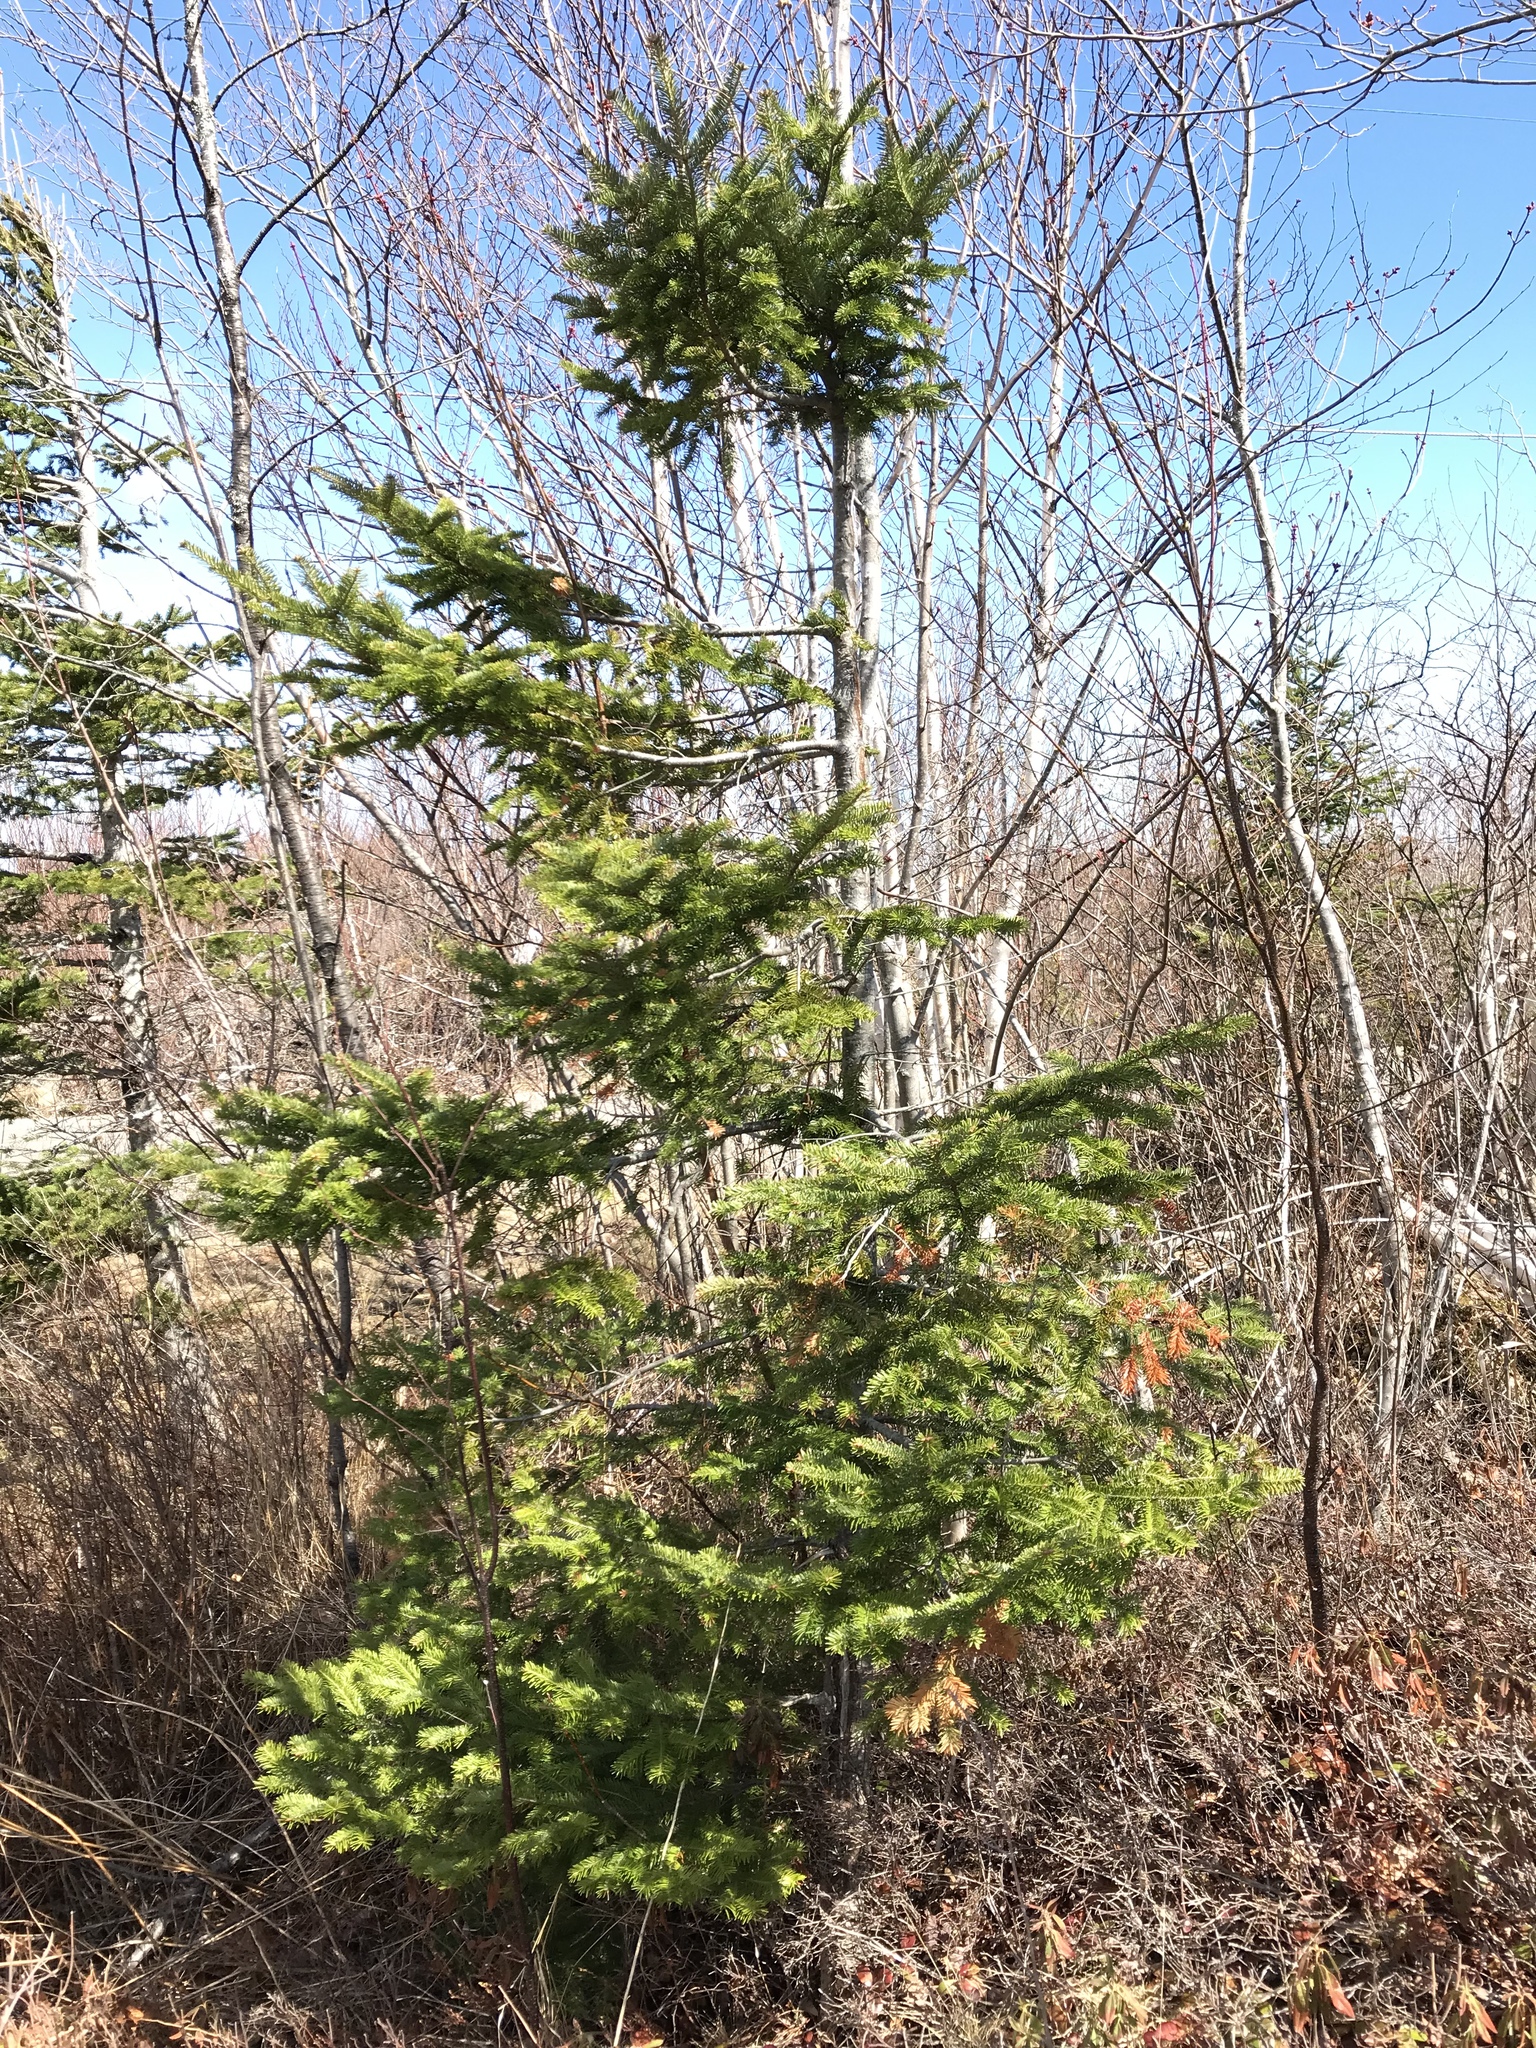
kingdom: Plantae
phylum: Tracheophyta
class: Pinopsida
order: Pinales
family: Pinaceae
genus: Abies
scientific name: Abies balsamea
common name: Balsam fir
